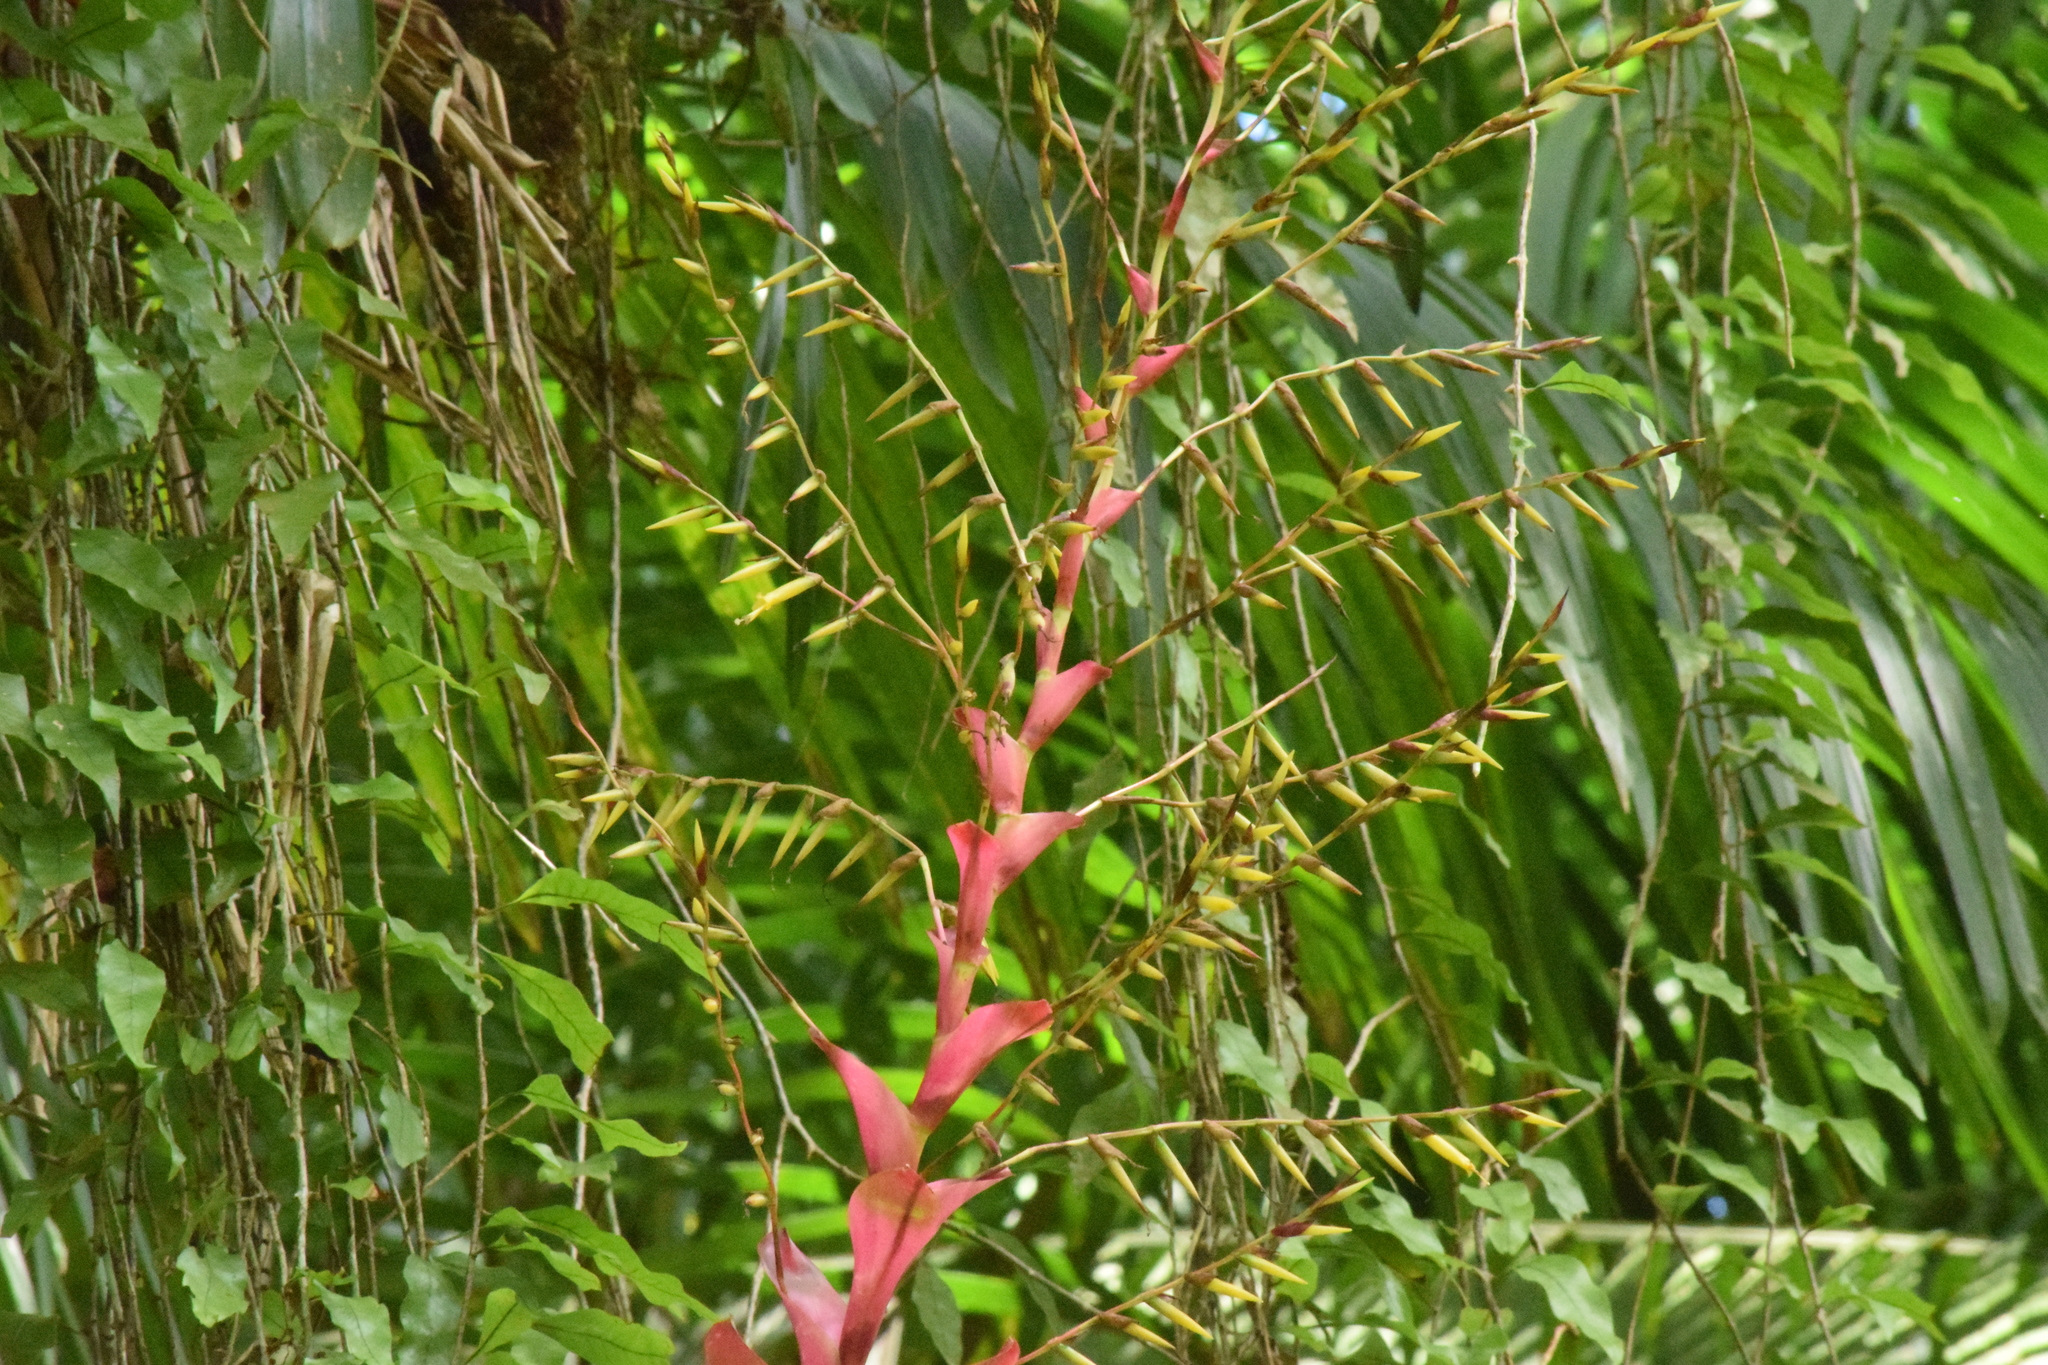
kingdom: Plantae
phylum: Tracheophyta
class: Liliopsida
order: Poales
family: Bromeliaceae
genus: Vriesea
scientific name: Vriesea philippocoburgi
